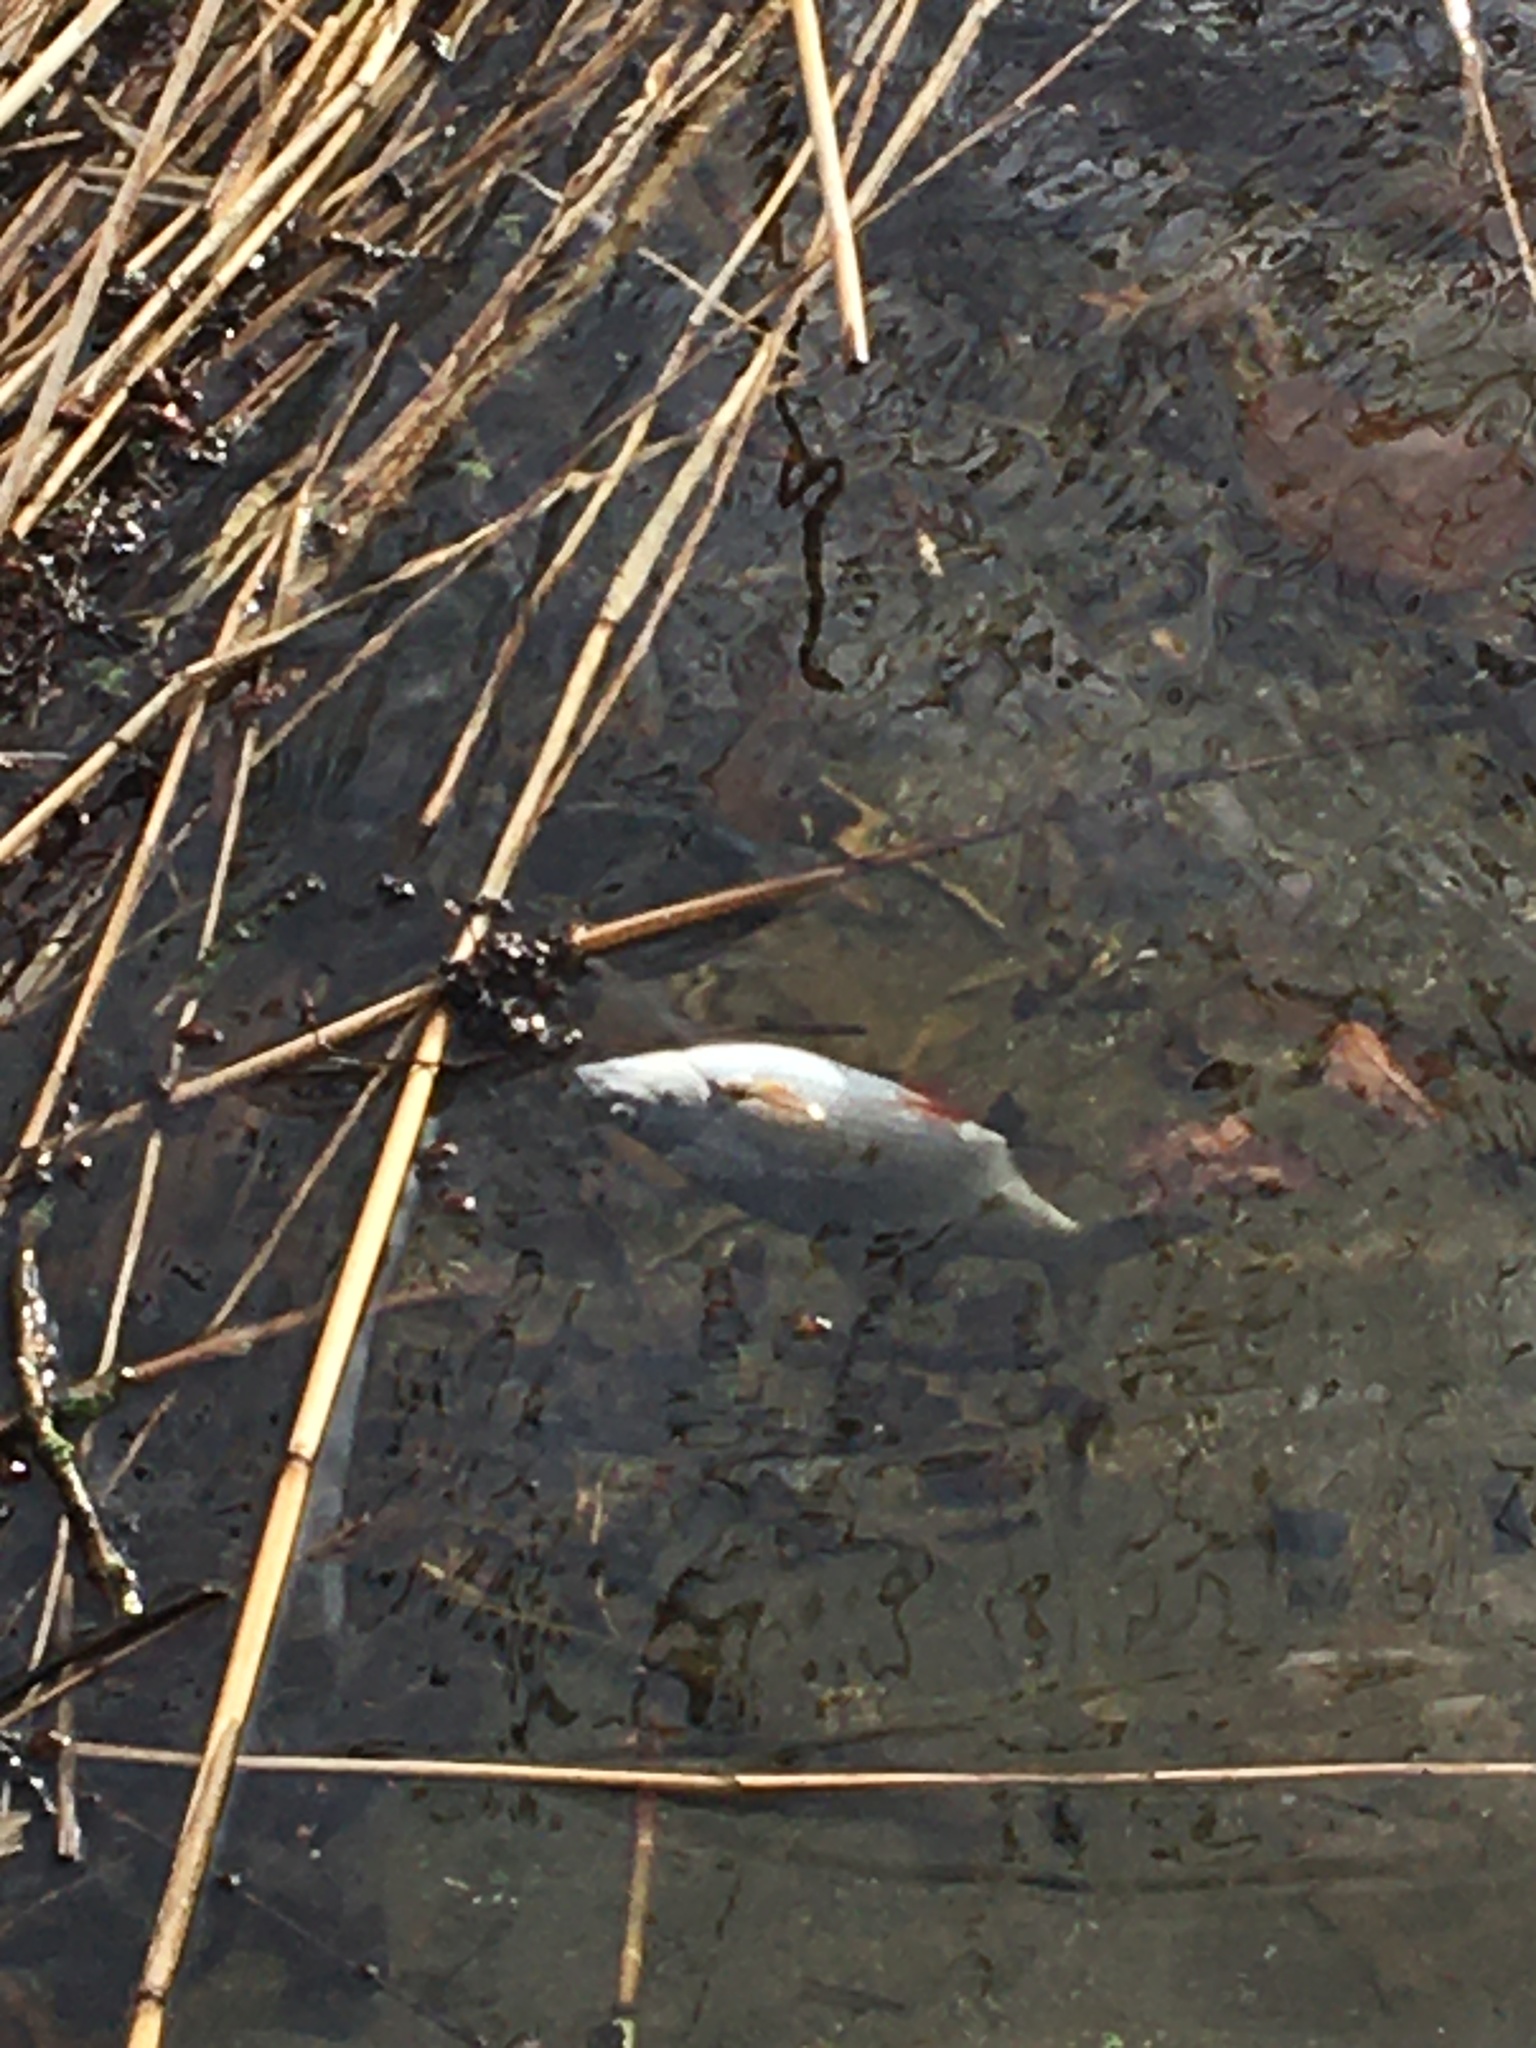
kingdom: Animalia
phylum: Chordata
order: Cypriniformes
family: Cyprinidae
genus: Rutilus
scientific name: Rutilus rutilus
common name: Roach
